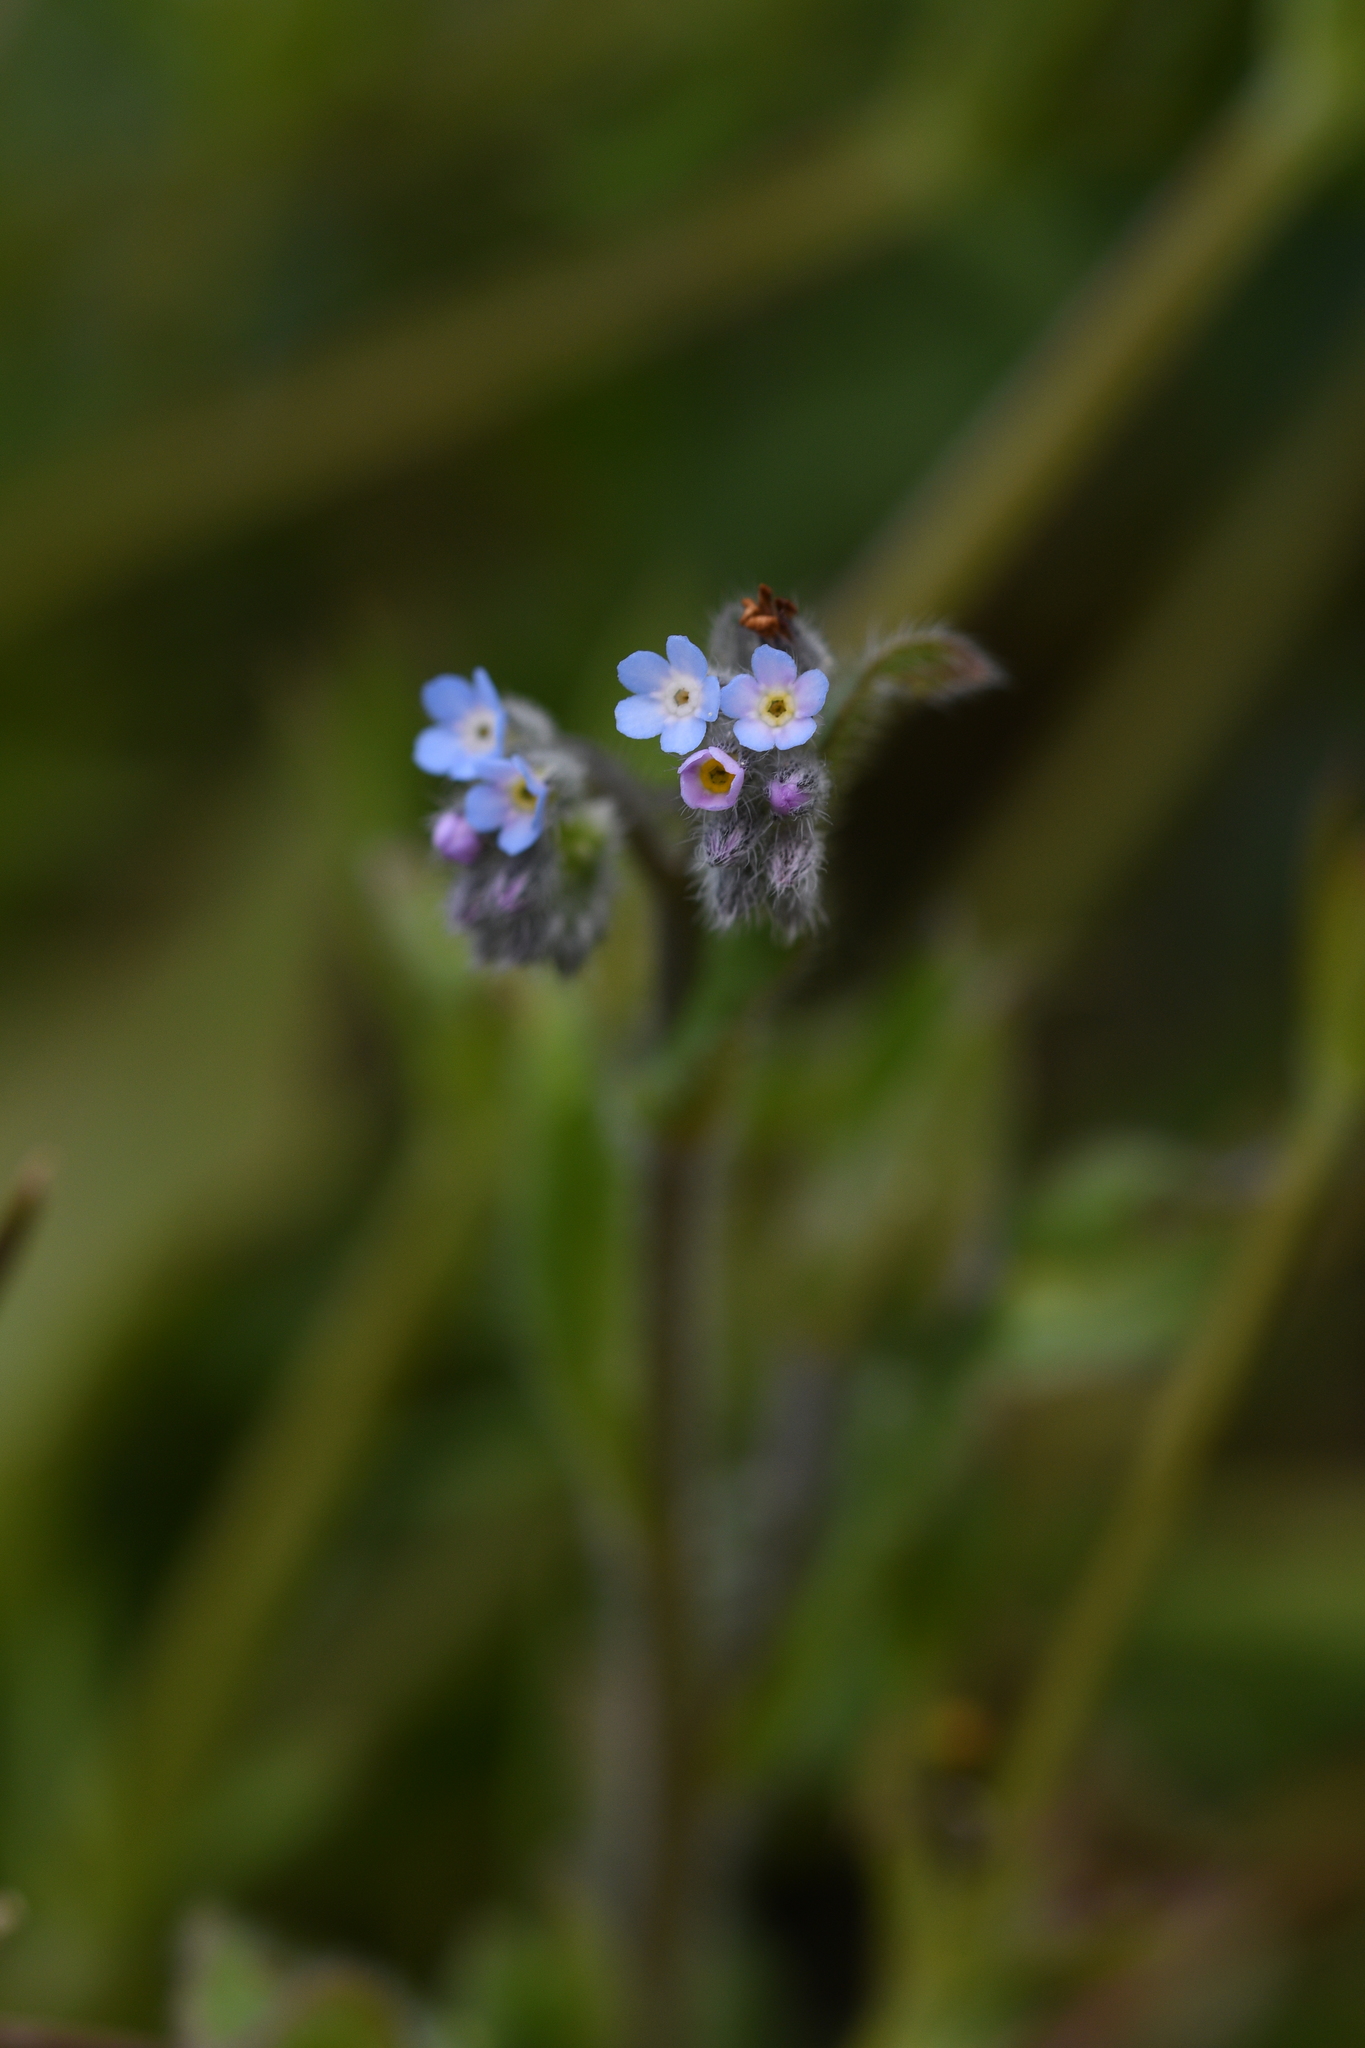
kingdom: Plantae
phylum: Tracheophyta
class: Magnoliopsida
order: Boraginales
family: Boraginaceae
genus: Myosotis
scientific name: Myosotis
